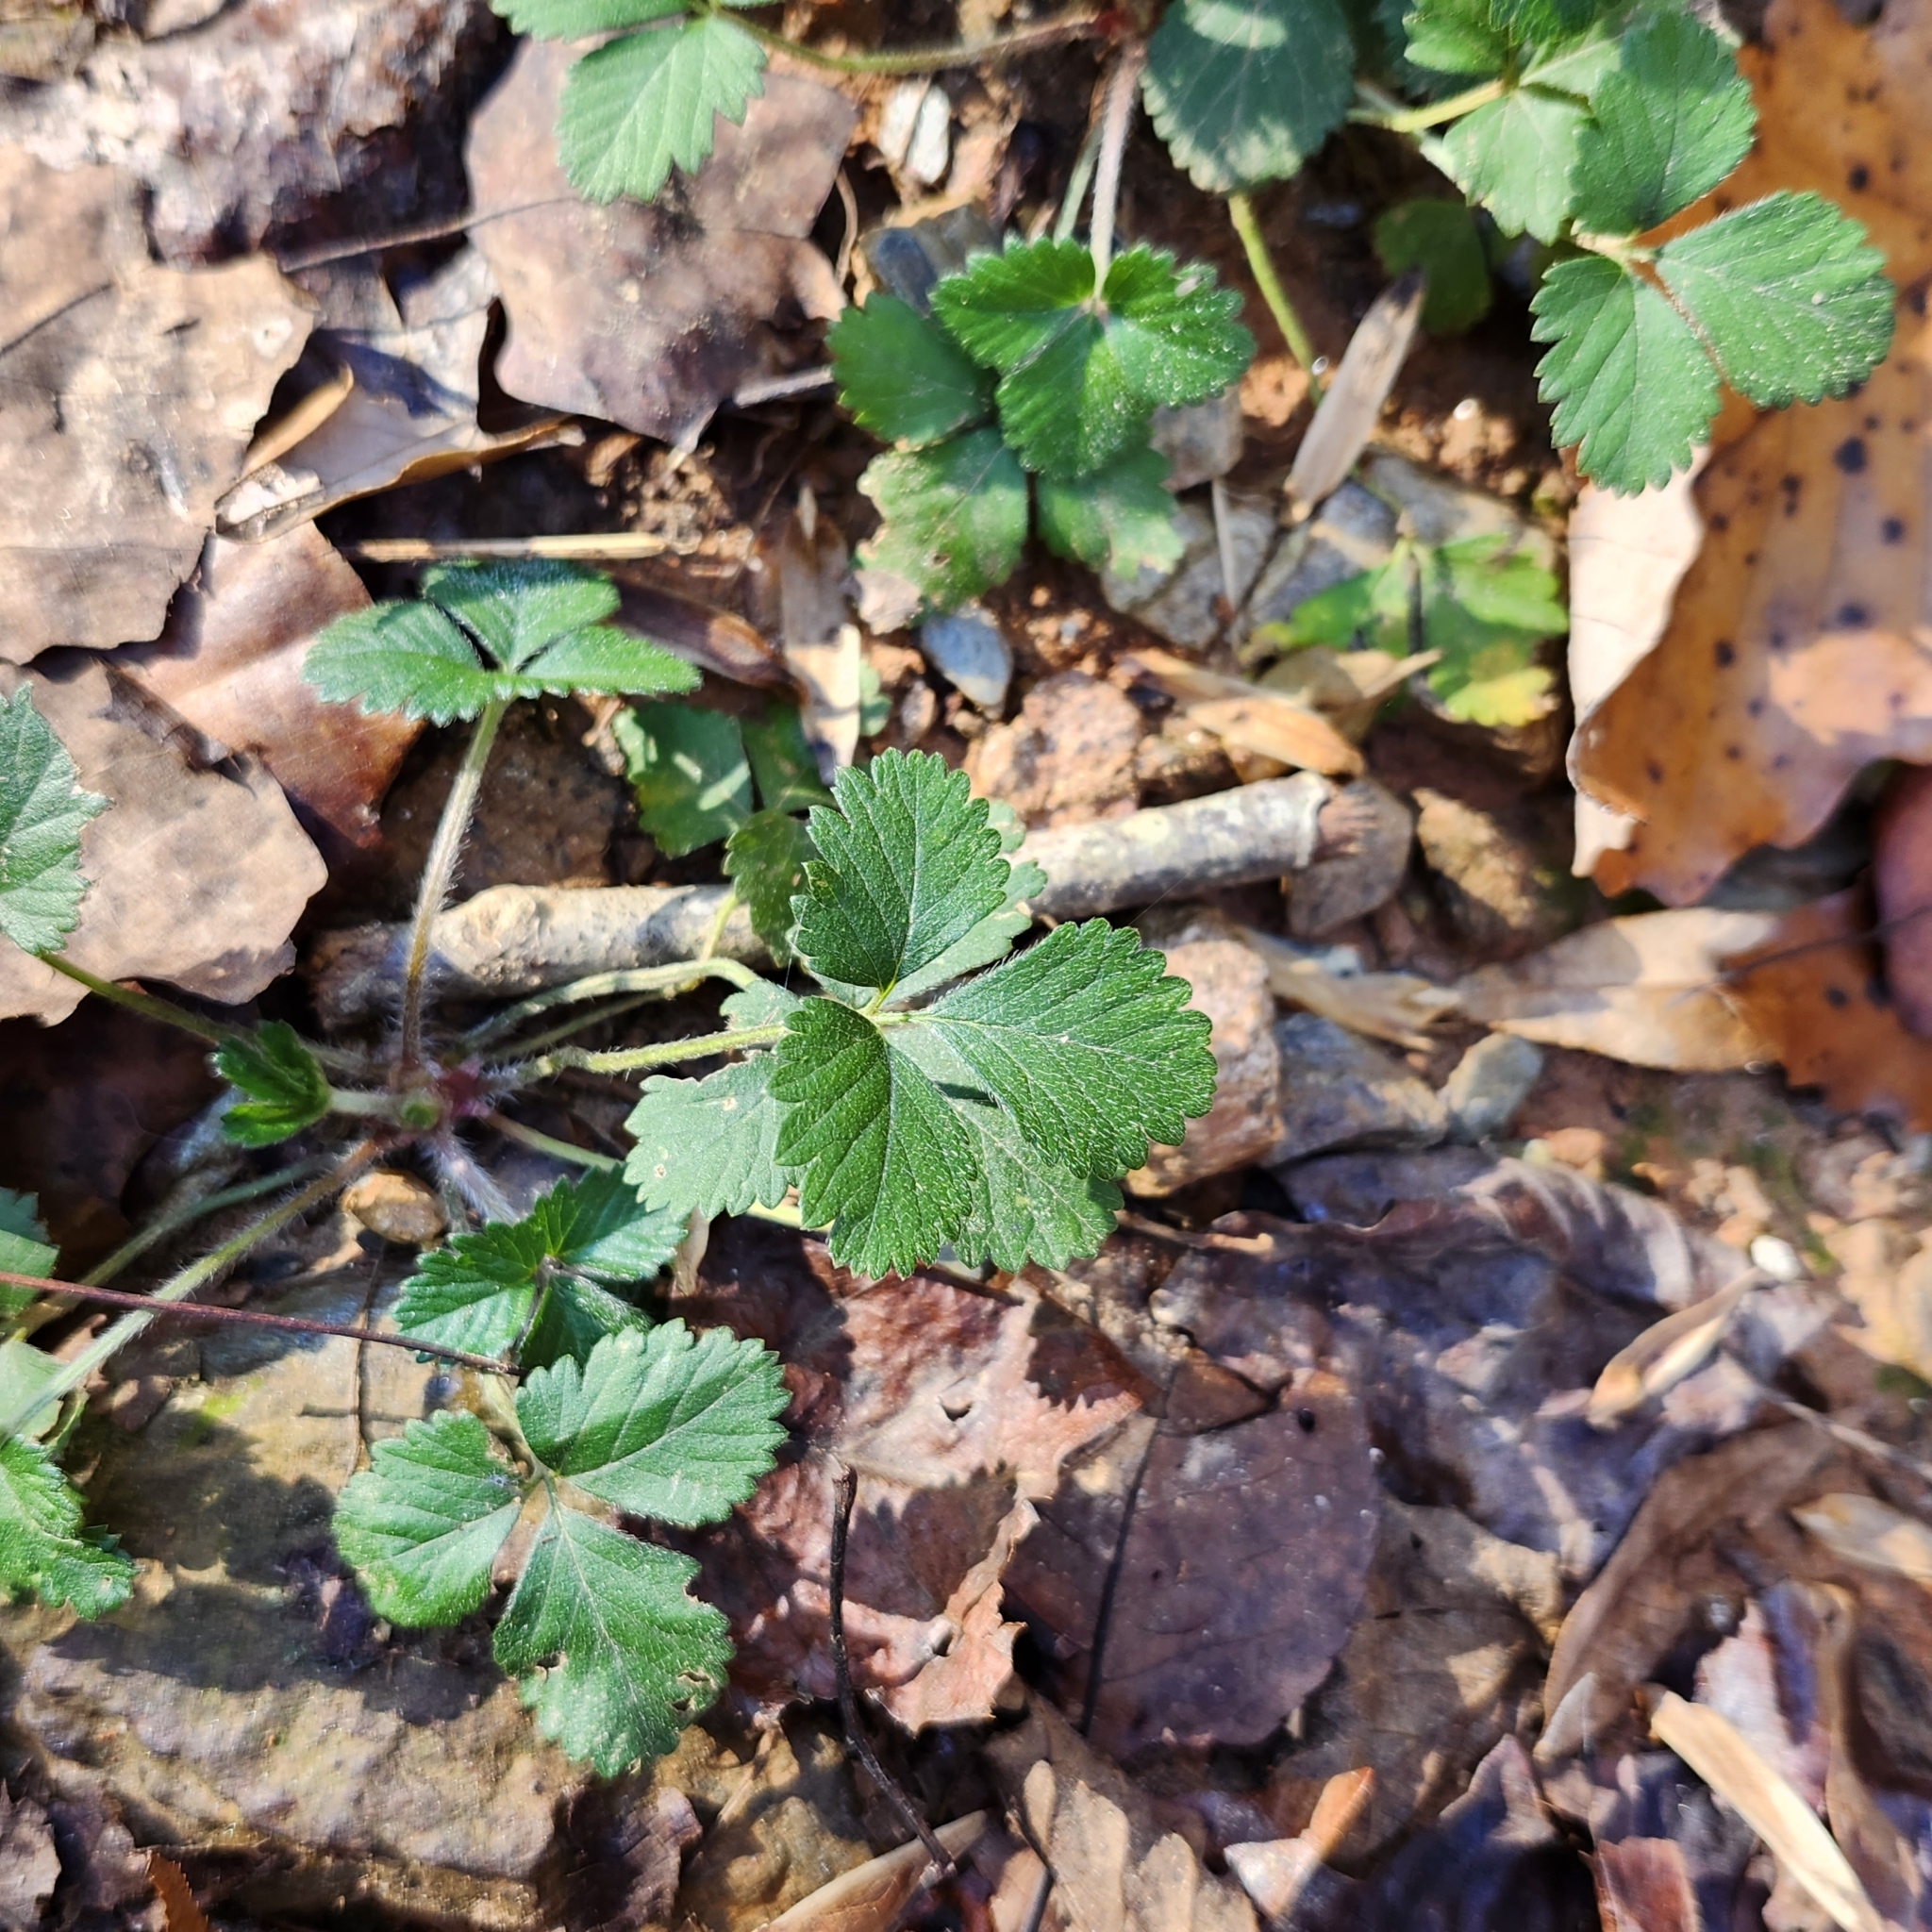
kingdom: Plantae
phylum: Tracheophyta
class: Magnoliopsida
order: Rosales
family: Rosaceae
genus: Potentilla
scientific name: Potentilla indica
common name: Yellow-flowered strawberry
